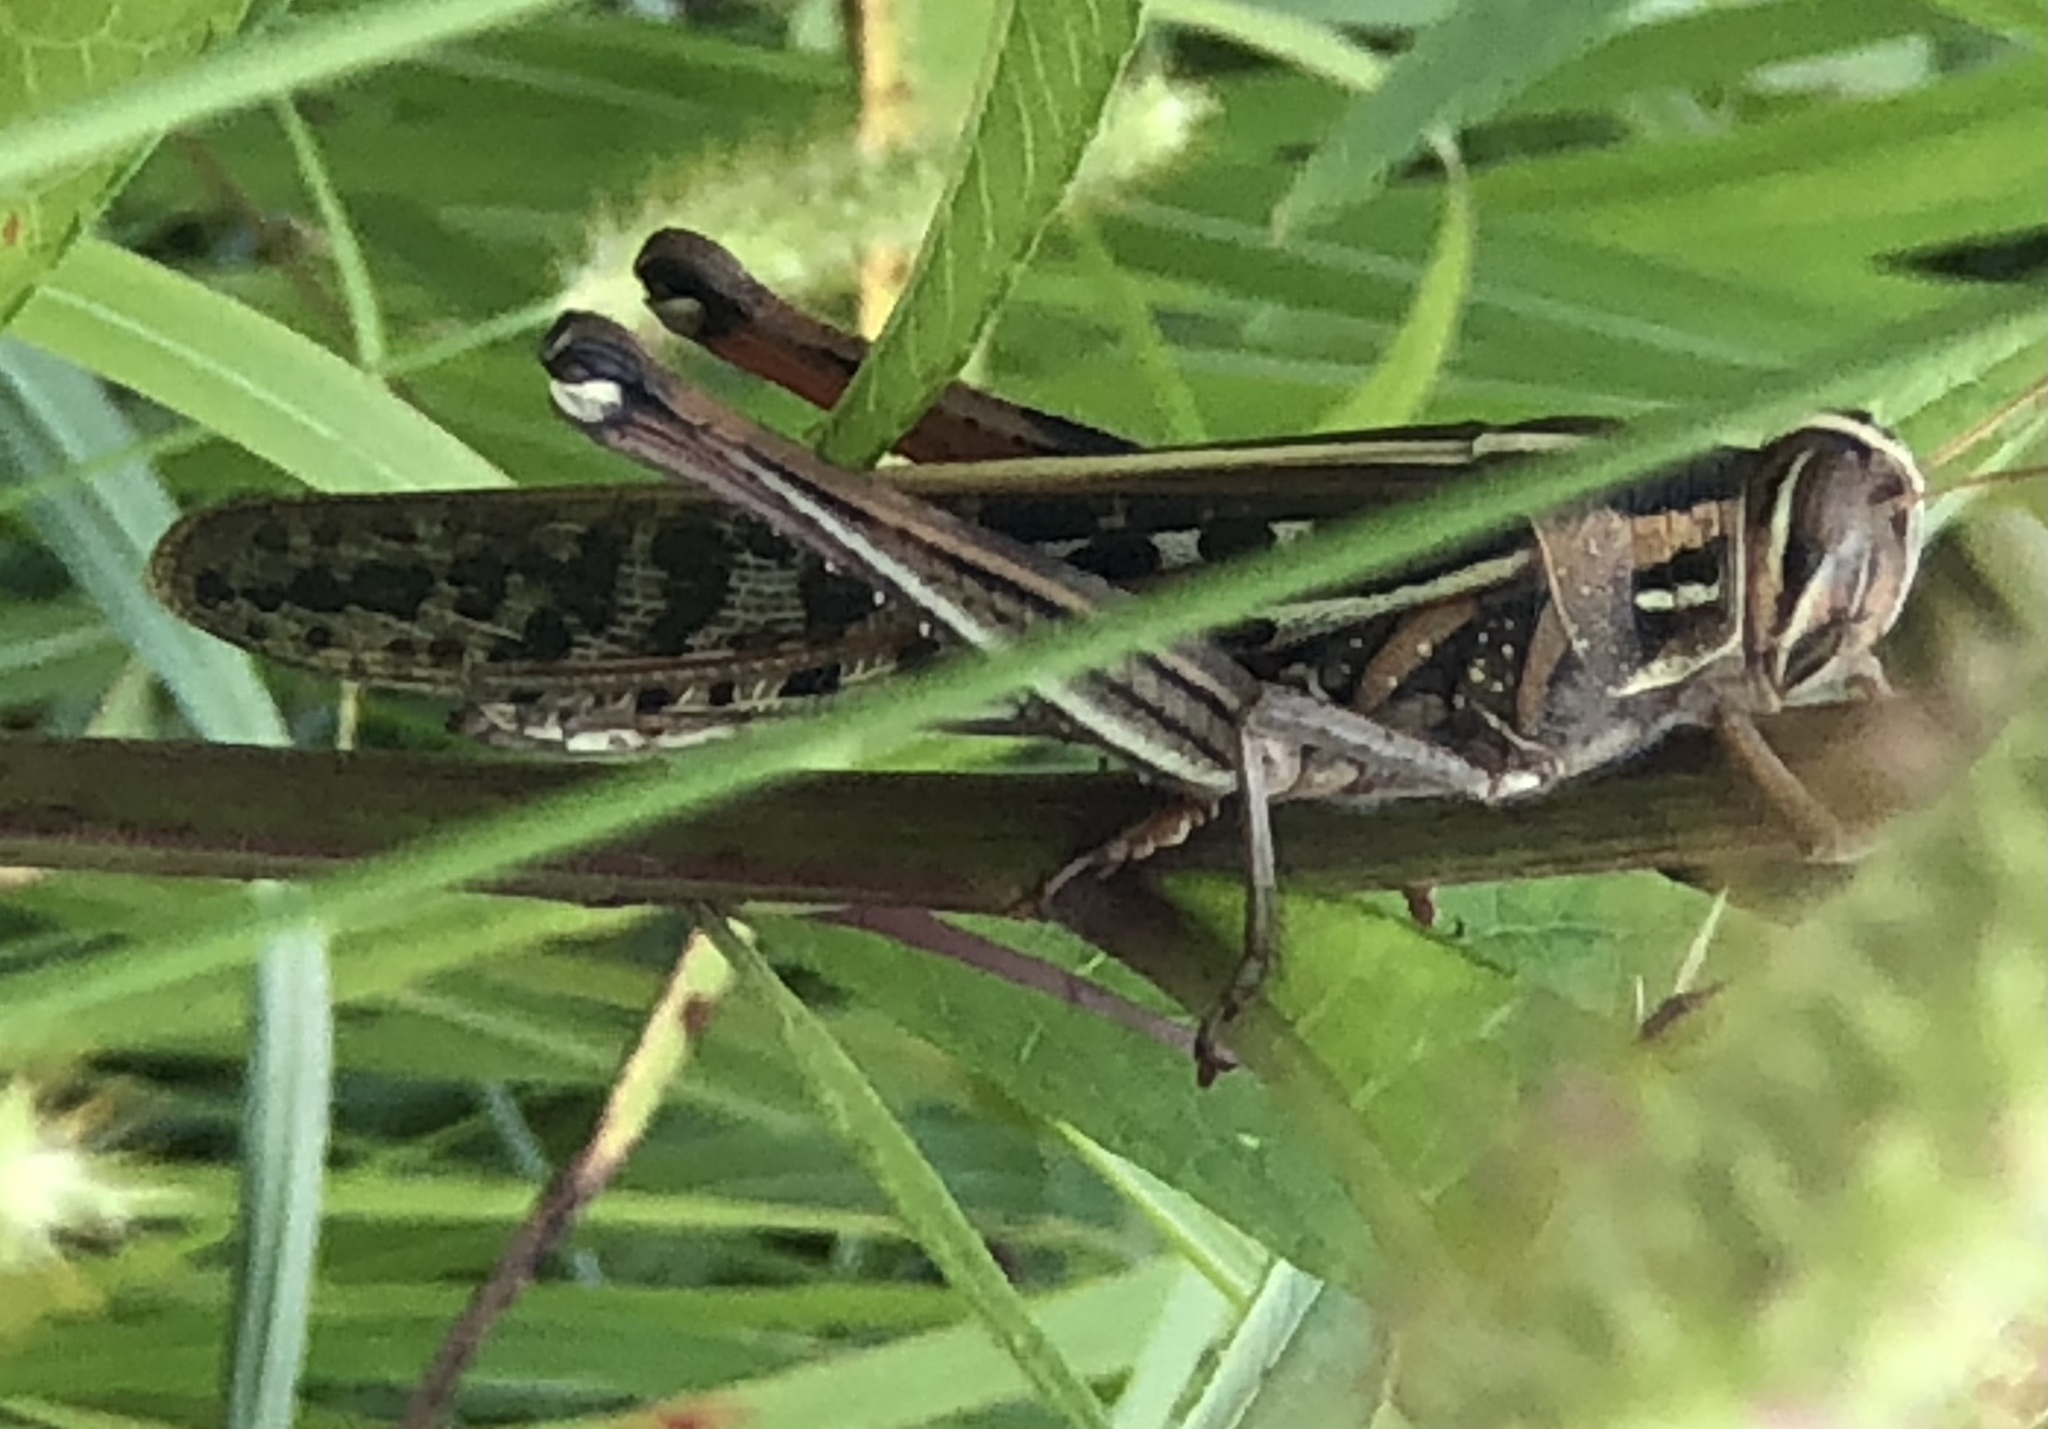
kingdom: Animalia
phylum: Arthropoda
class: Insecta
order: Orthoptera
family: Acrididae
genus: Schistocerca
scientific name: Schistocerca americana
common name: American bird locust
